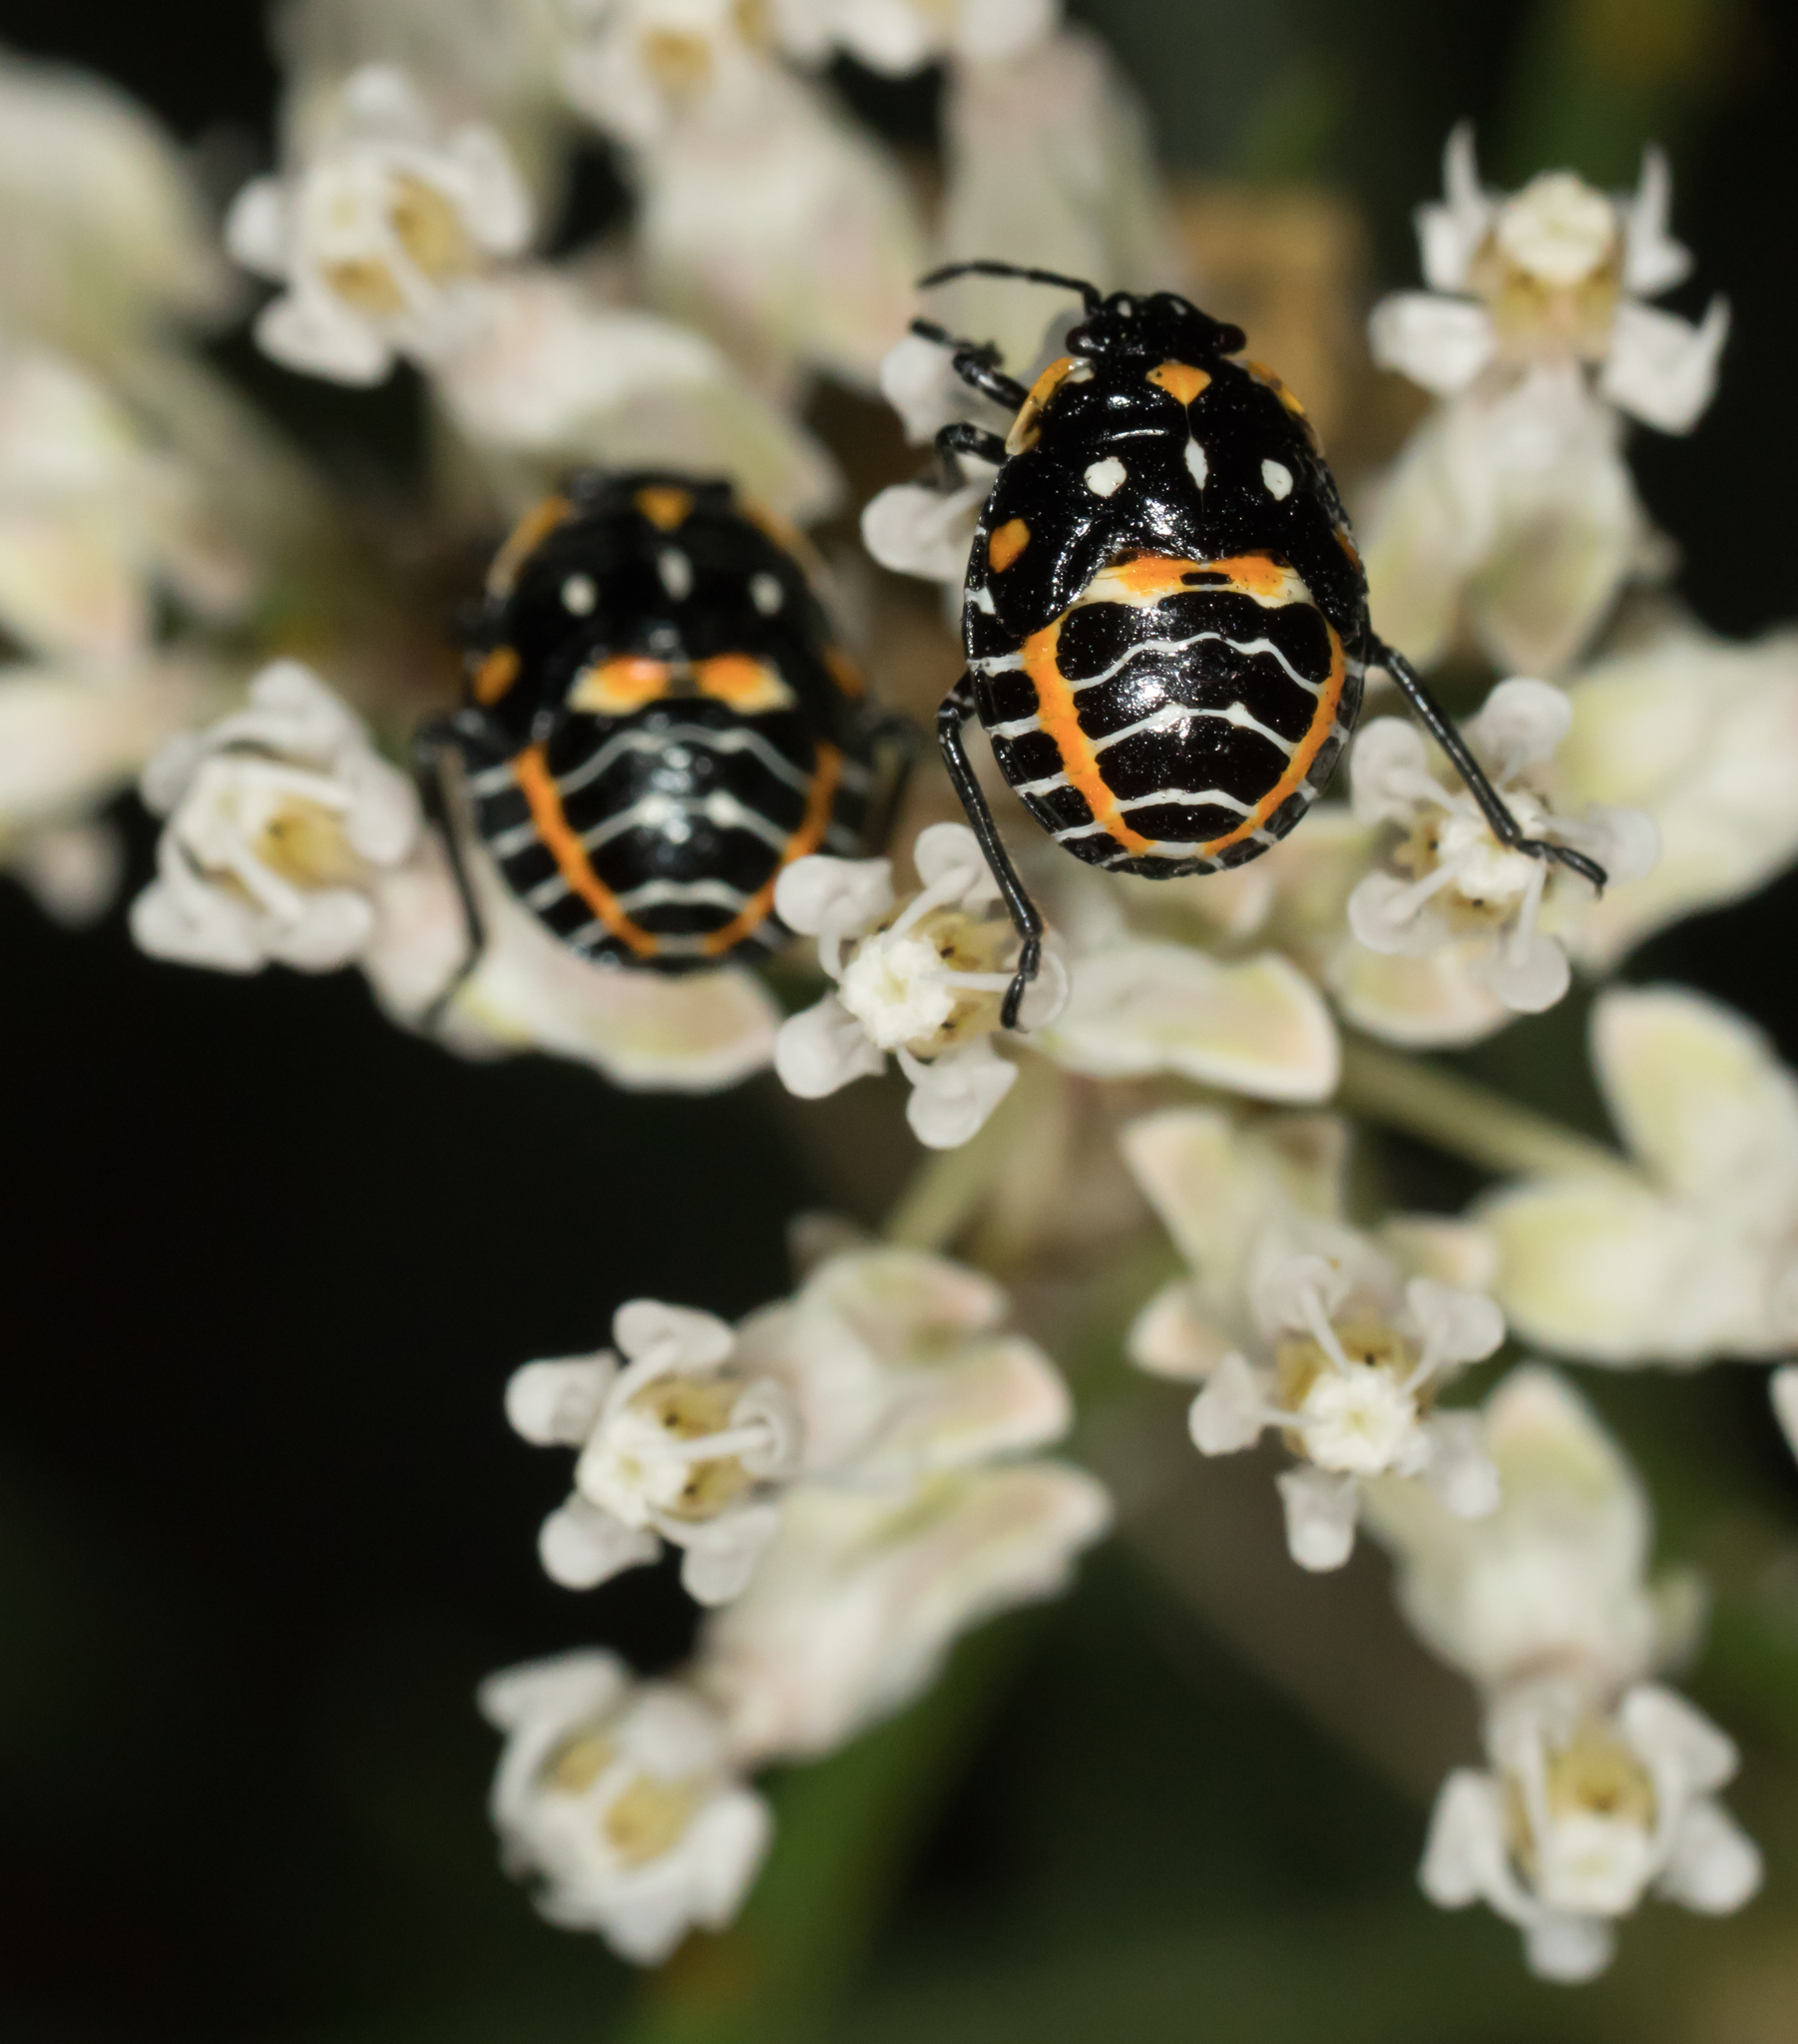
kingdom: Animalia
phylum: Arthropoda
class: Insecta
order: Hemiptera
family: Pentatomidae
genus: Murgantia
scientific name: Murgantia histrionica
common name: Harlequin bug
